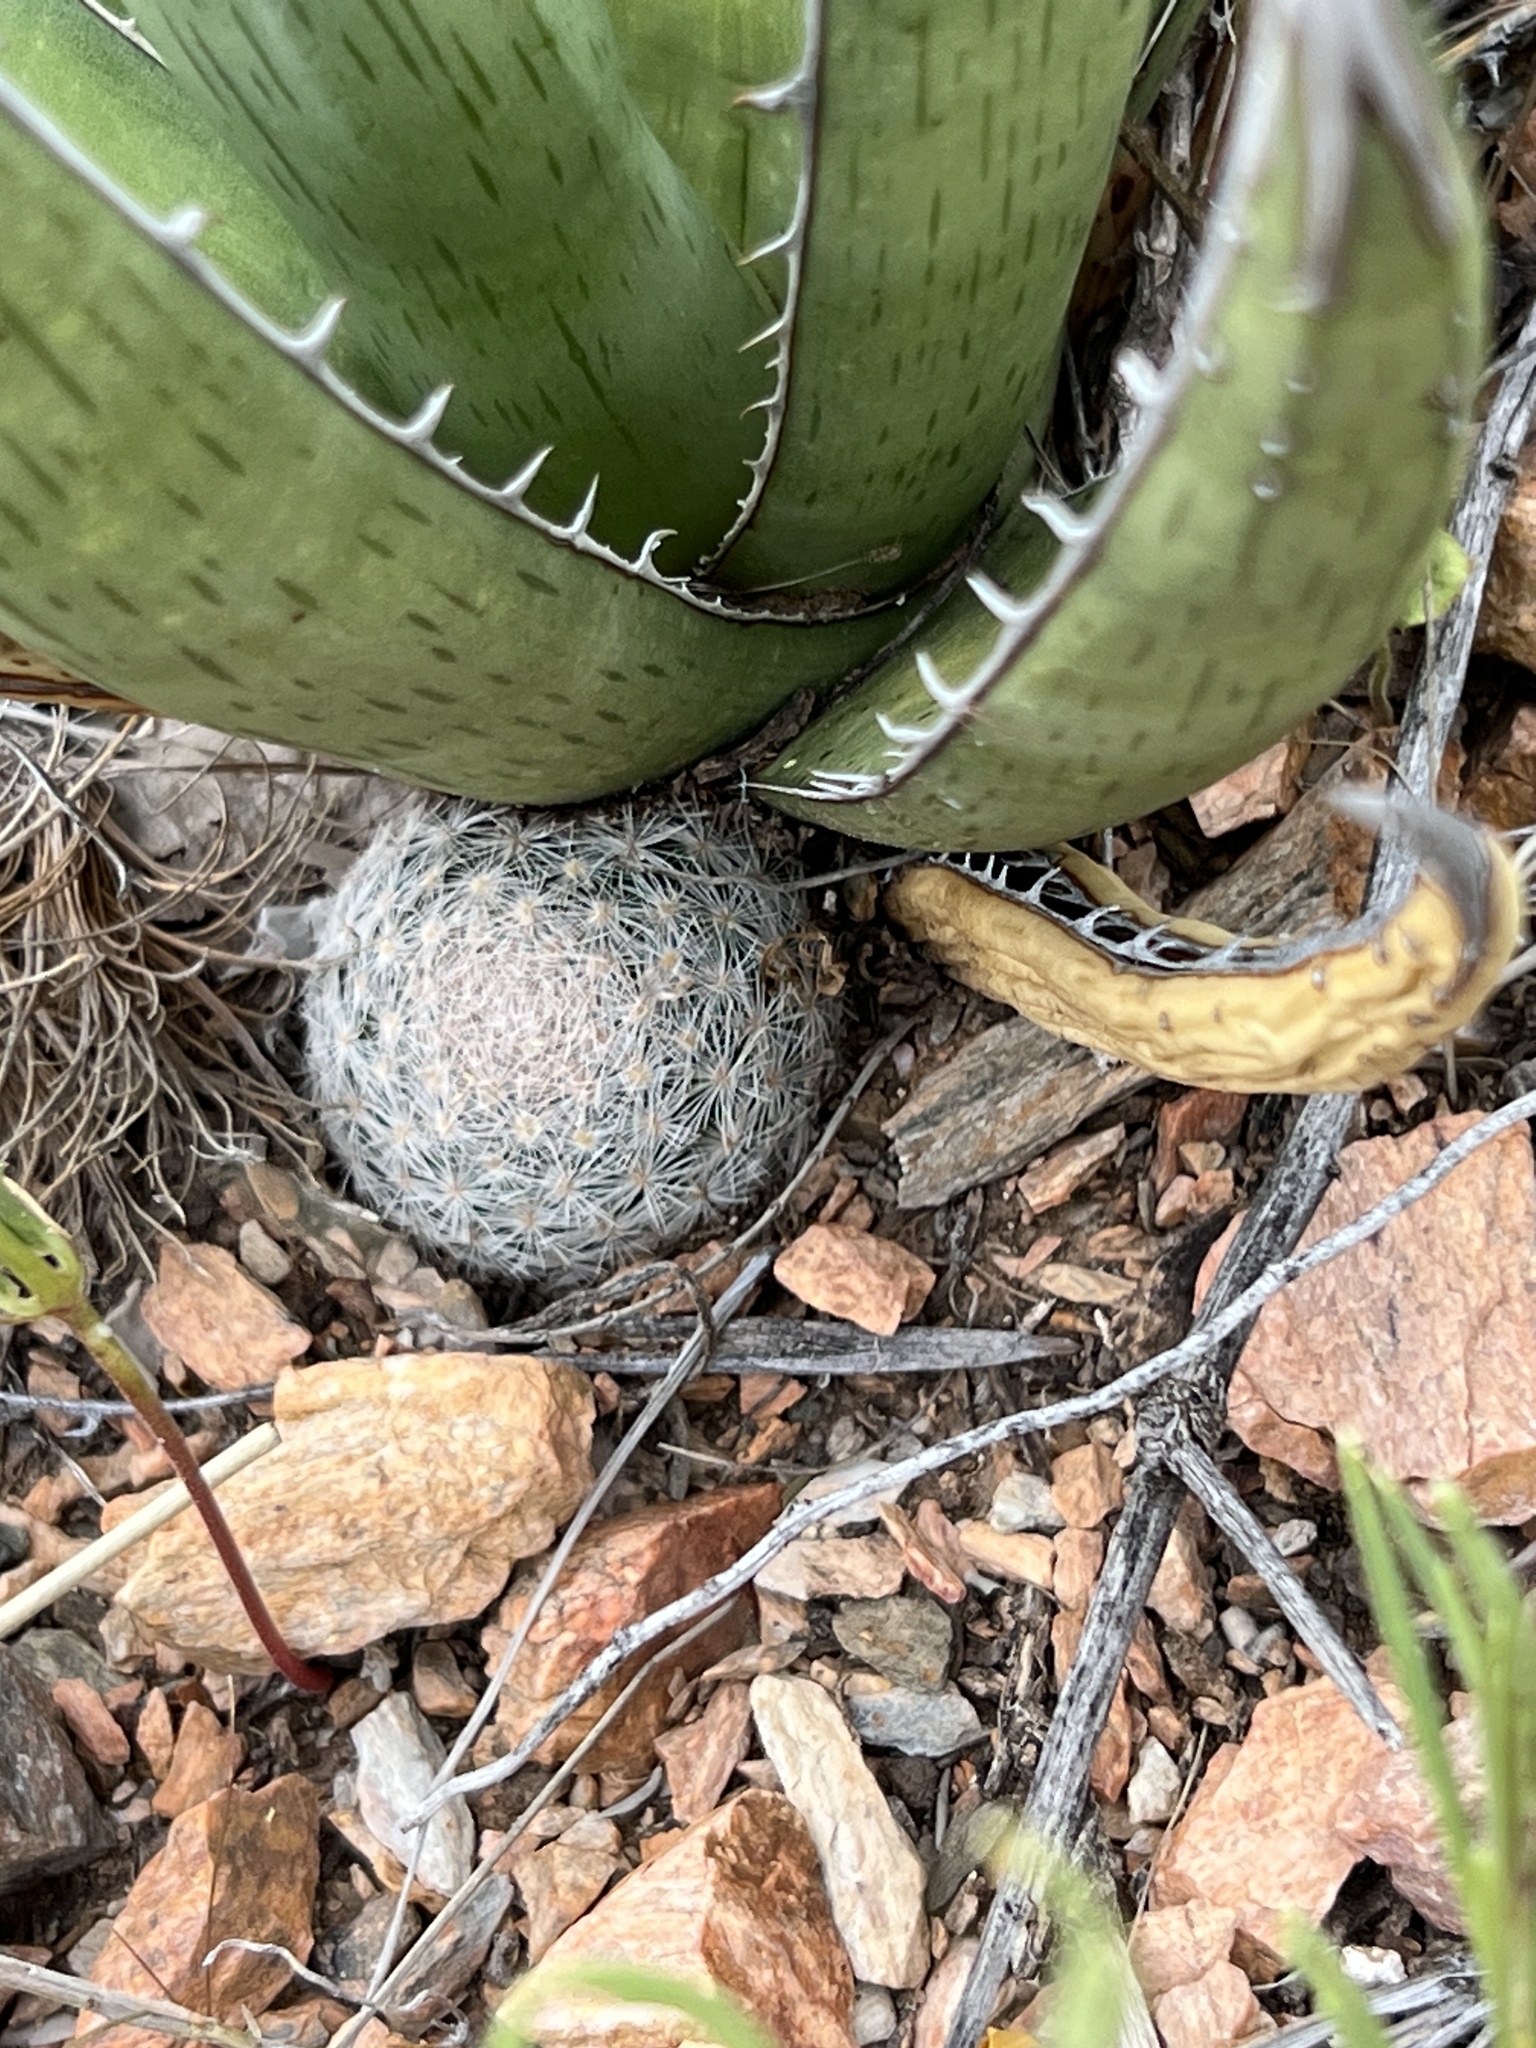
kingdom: Plantae
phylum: Tracheophyta
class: Magnoliopsida
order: Caryophyllales
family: Cactaceae
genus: Mammillaria
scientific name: Mammillaria lasiacantha
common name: Lace-spine nipple cactus
